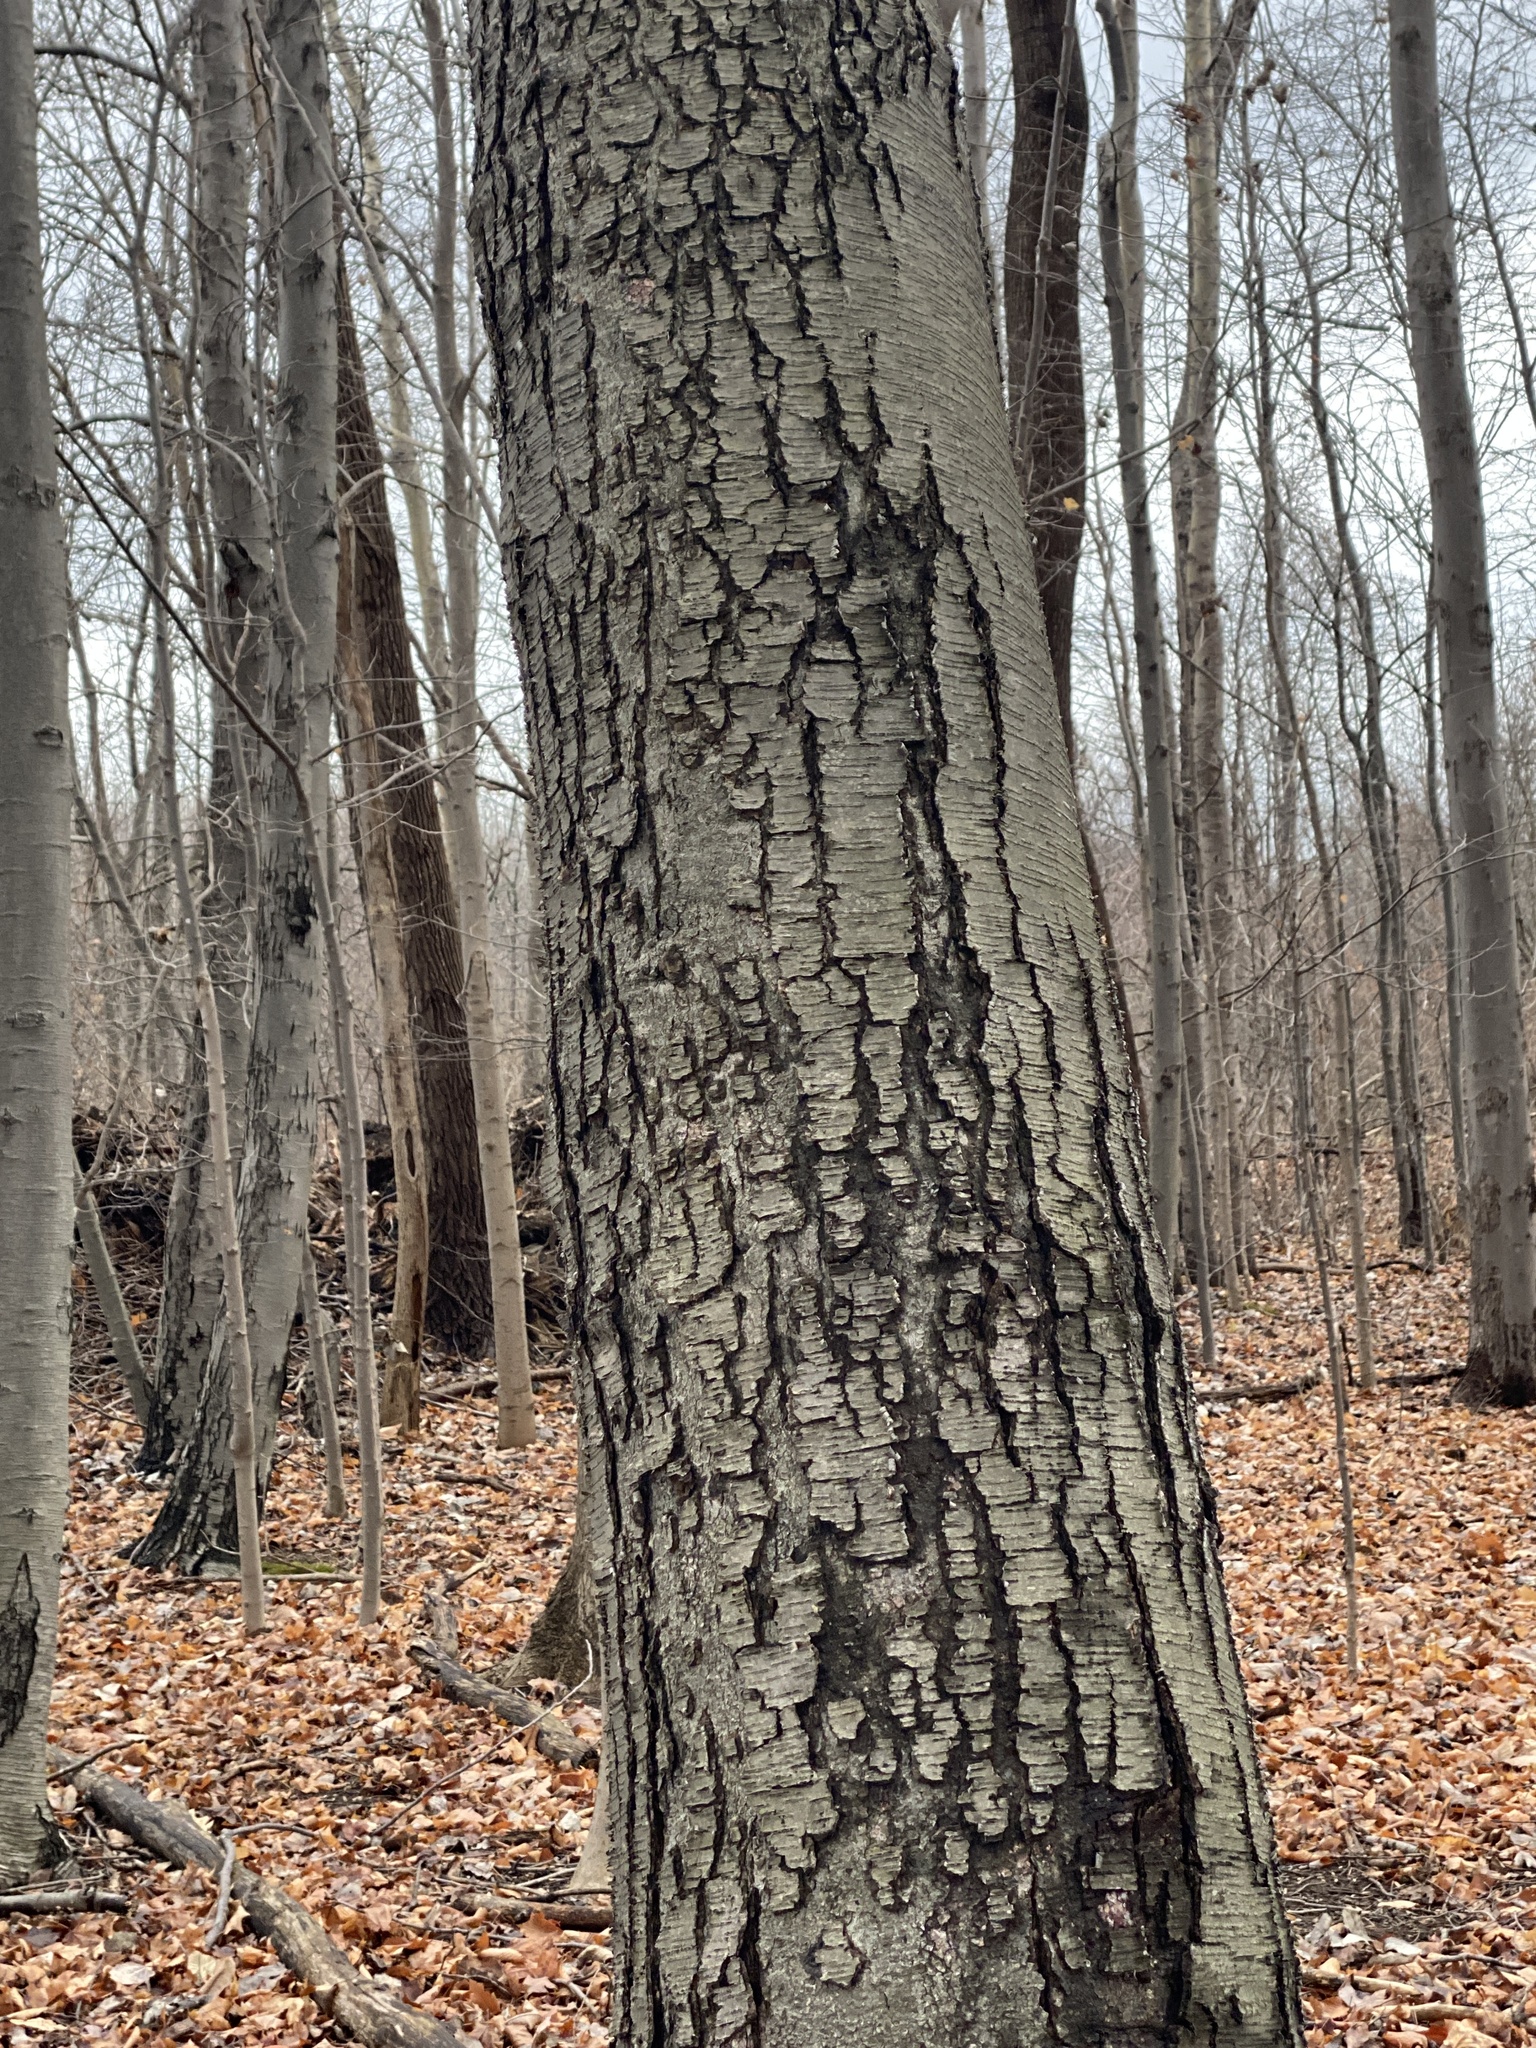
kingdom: Plantae
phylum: Tracheophyta
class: Magnoliopsida
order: Fagales
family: Betulaceae
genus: Betula
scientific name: Betula lenta
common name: Black birch
